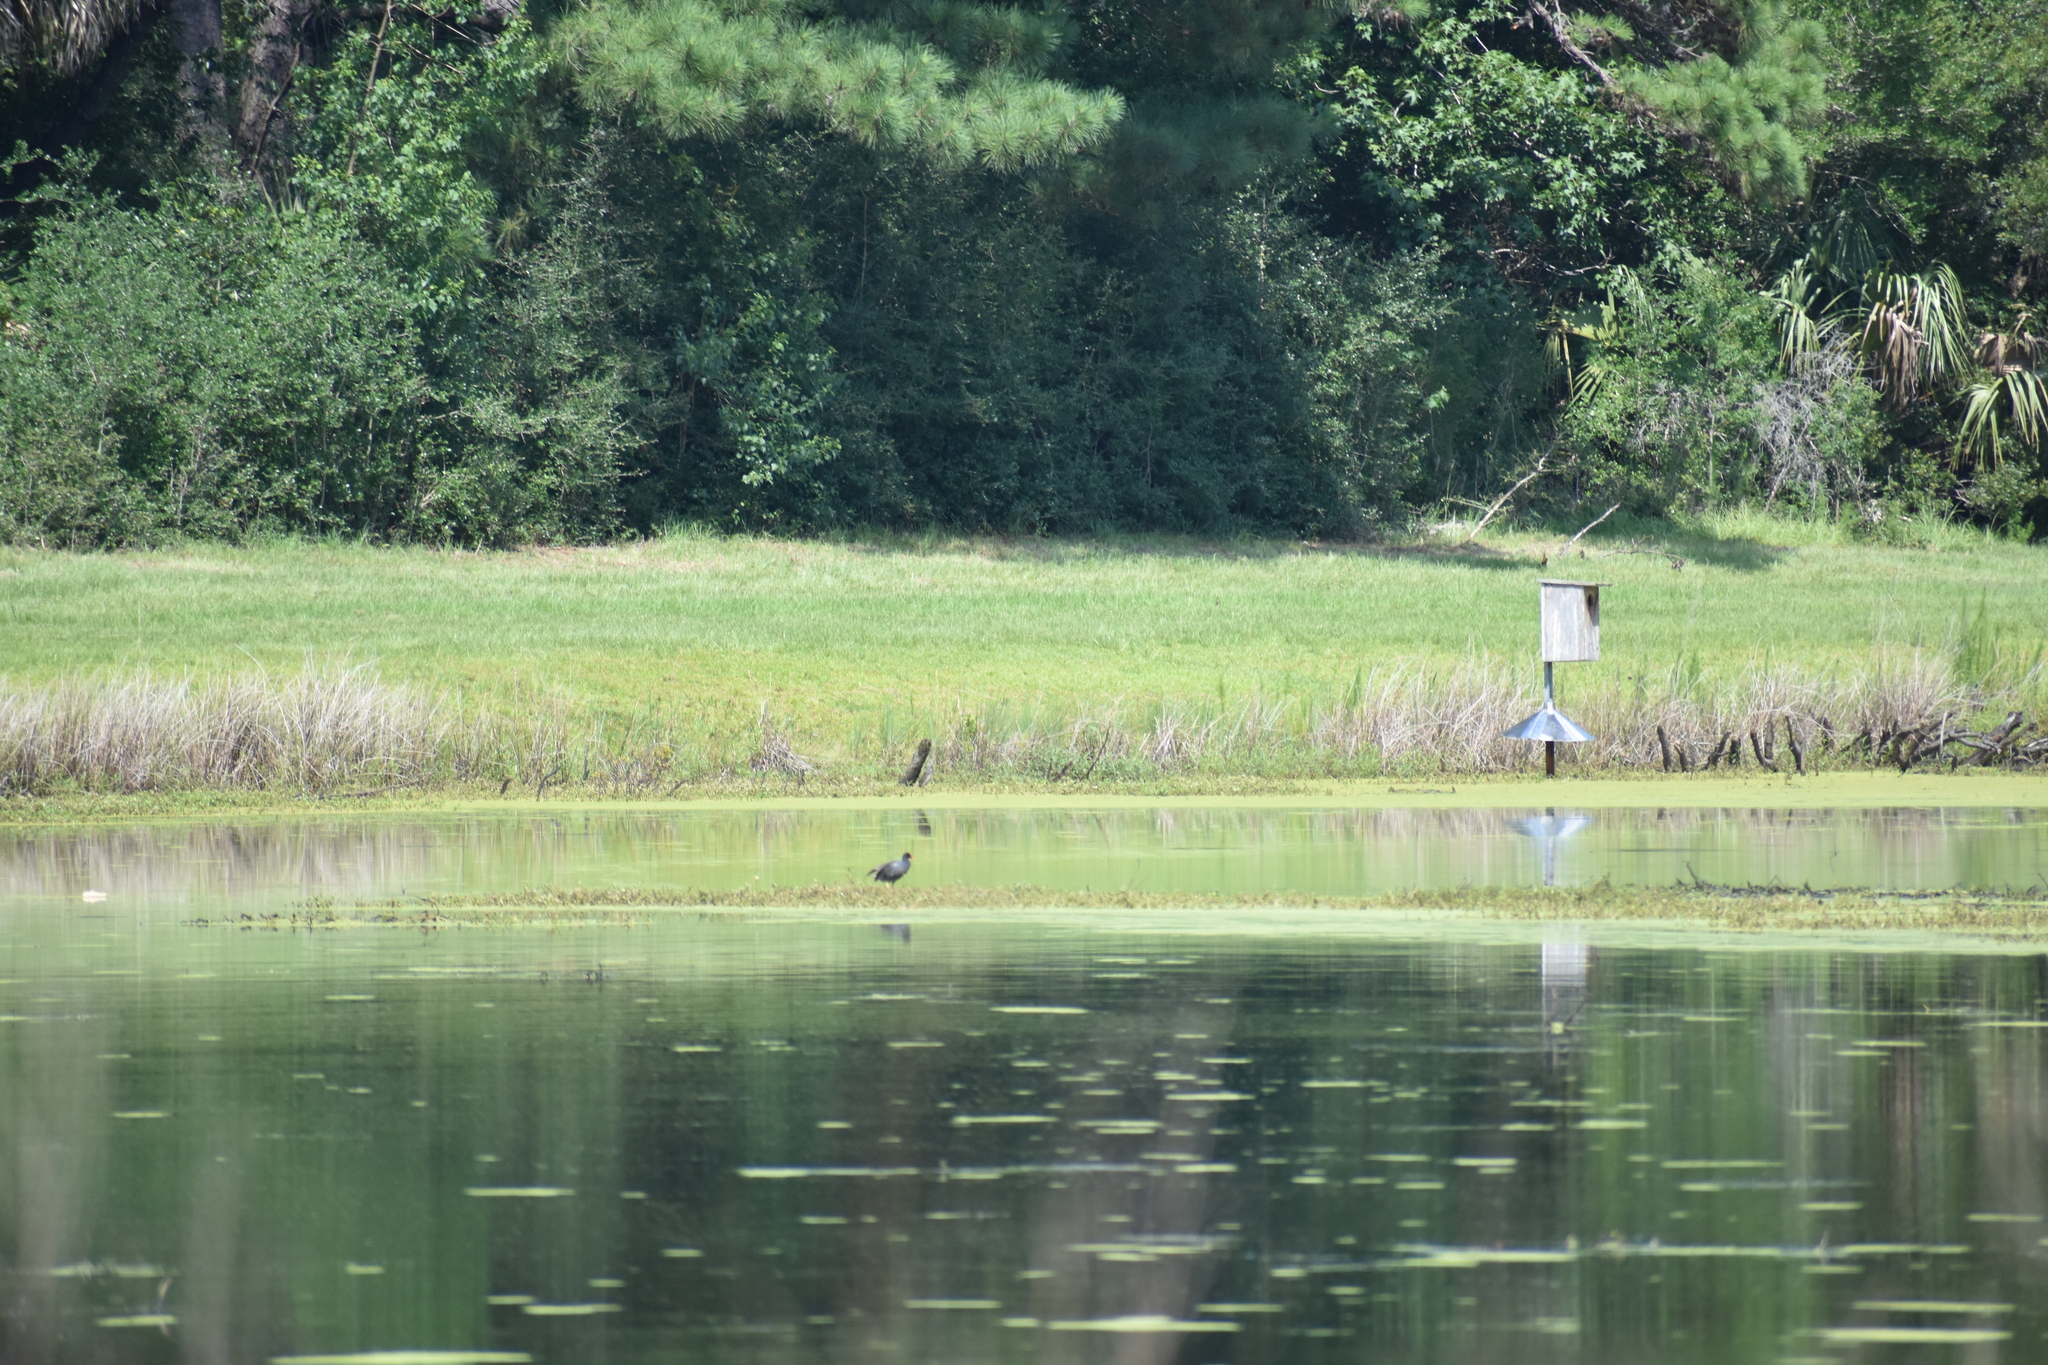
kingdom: Animalia
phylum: Chordata
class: Aves
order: Gruiformes
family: Rallidae
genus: Gallinula
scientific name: Gallinula chloropus
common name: Common moorhen
